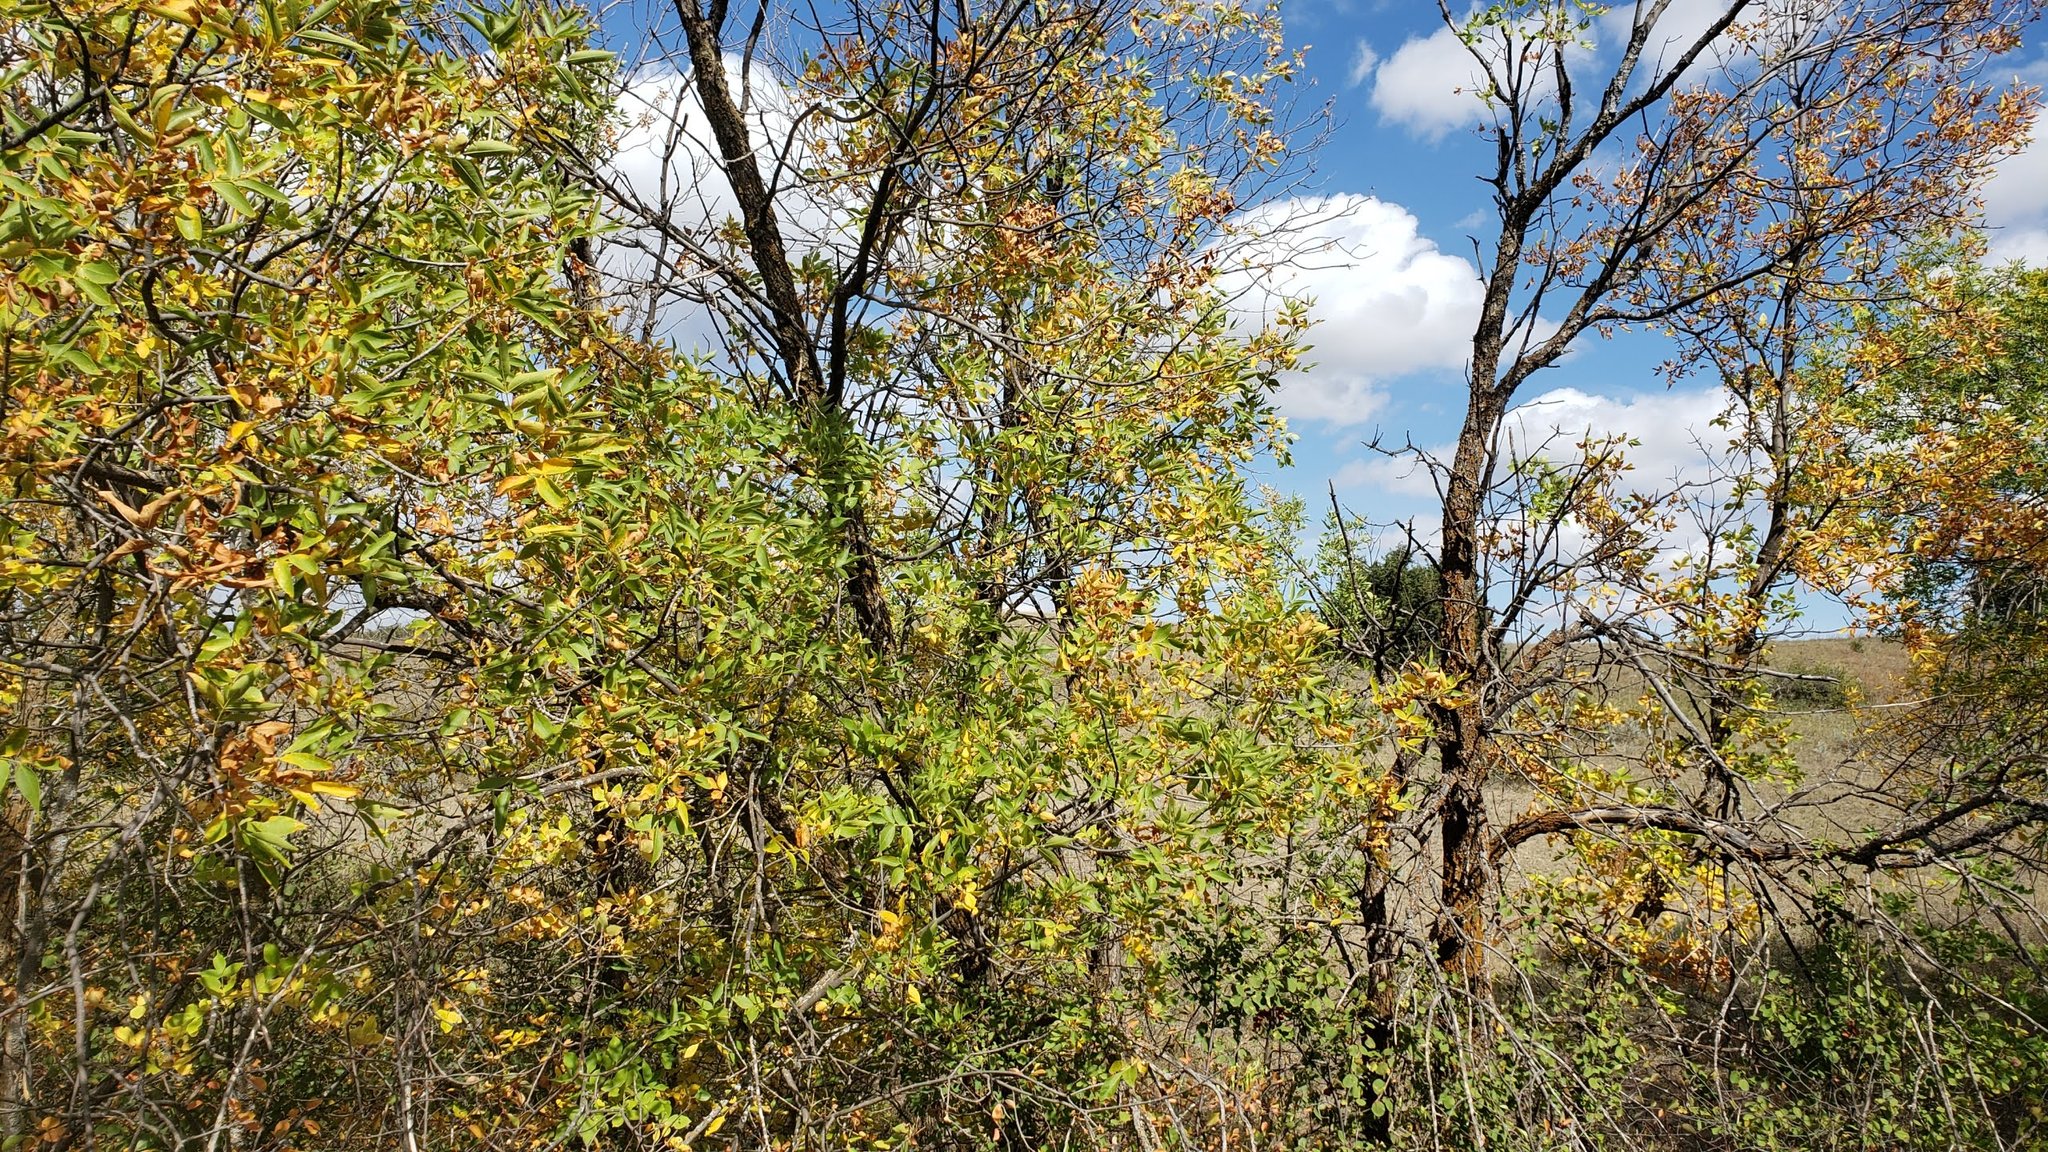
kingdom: Plantae
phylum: Tracheophyta
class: Magnoliopsida
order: Lamiales
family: Oleaceae
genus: Fraxinus
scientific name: Fraxinus pennsylvanica
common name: Green ash
